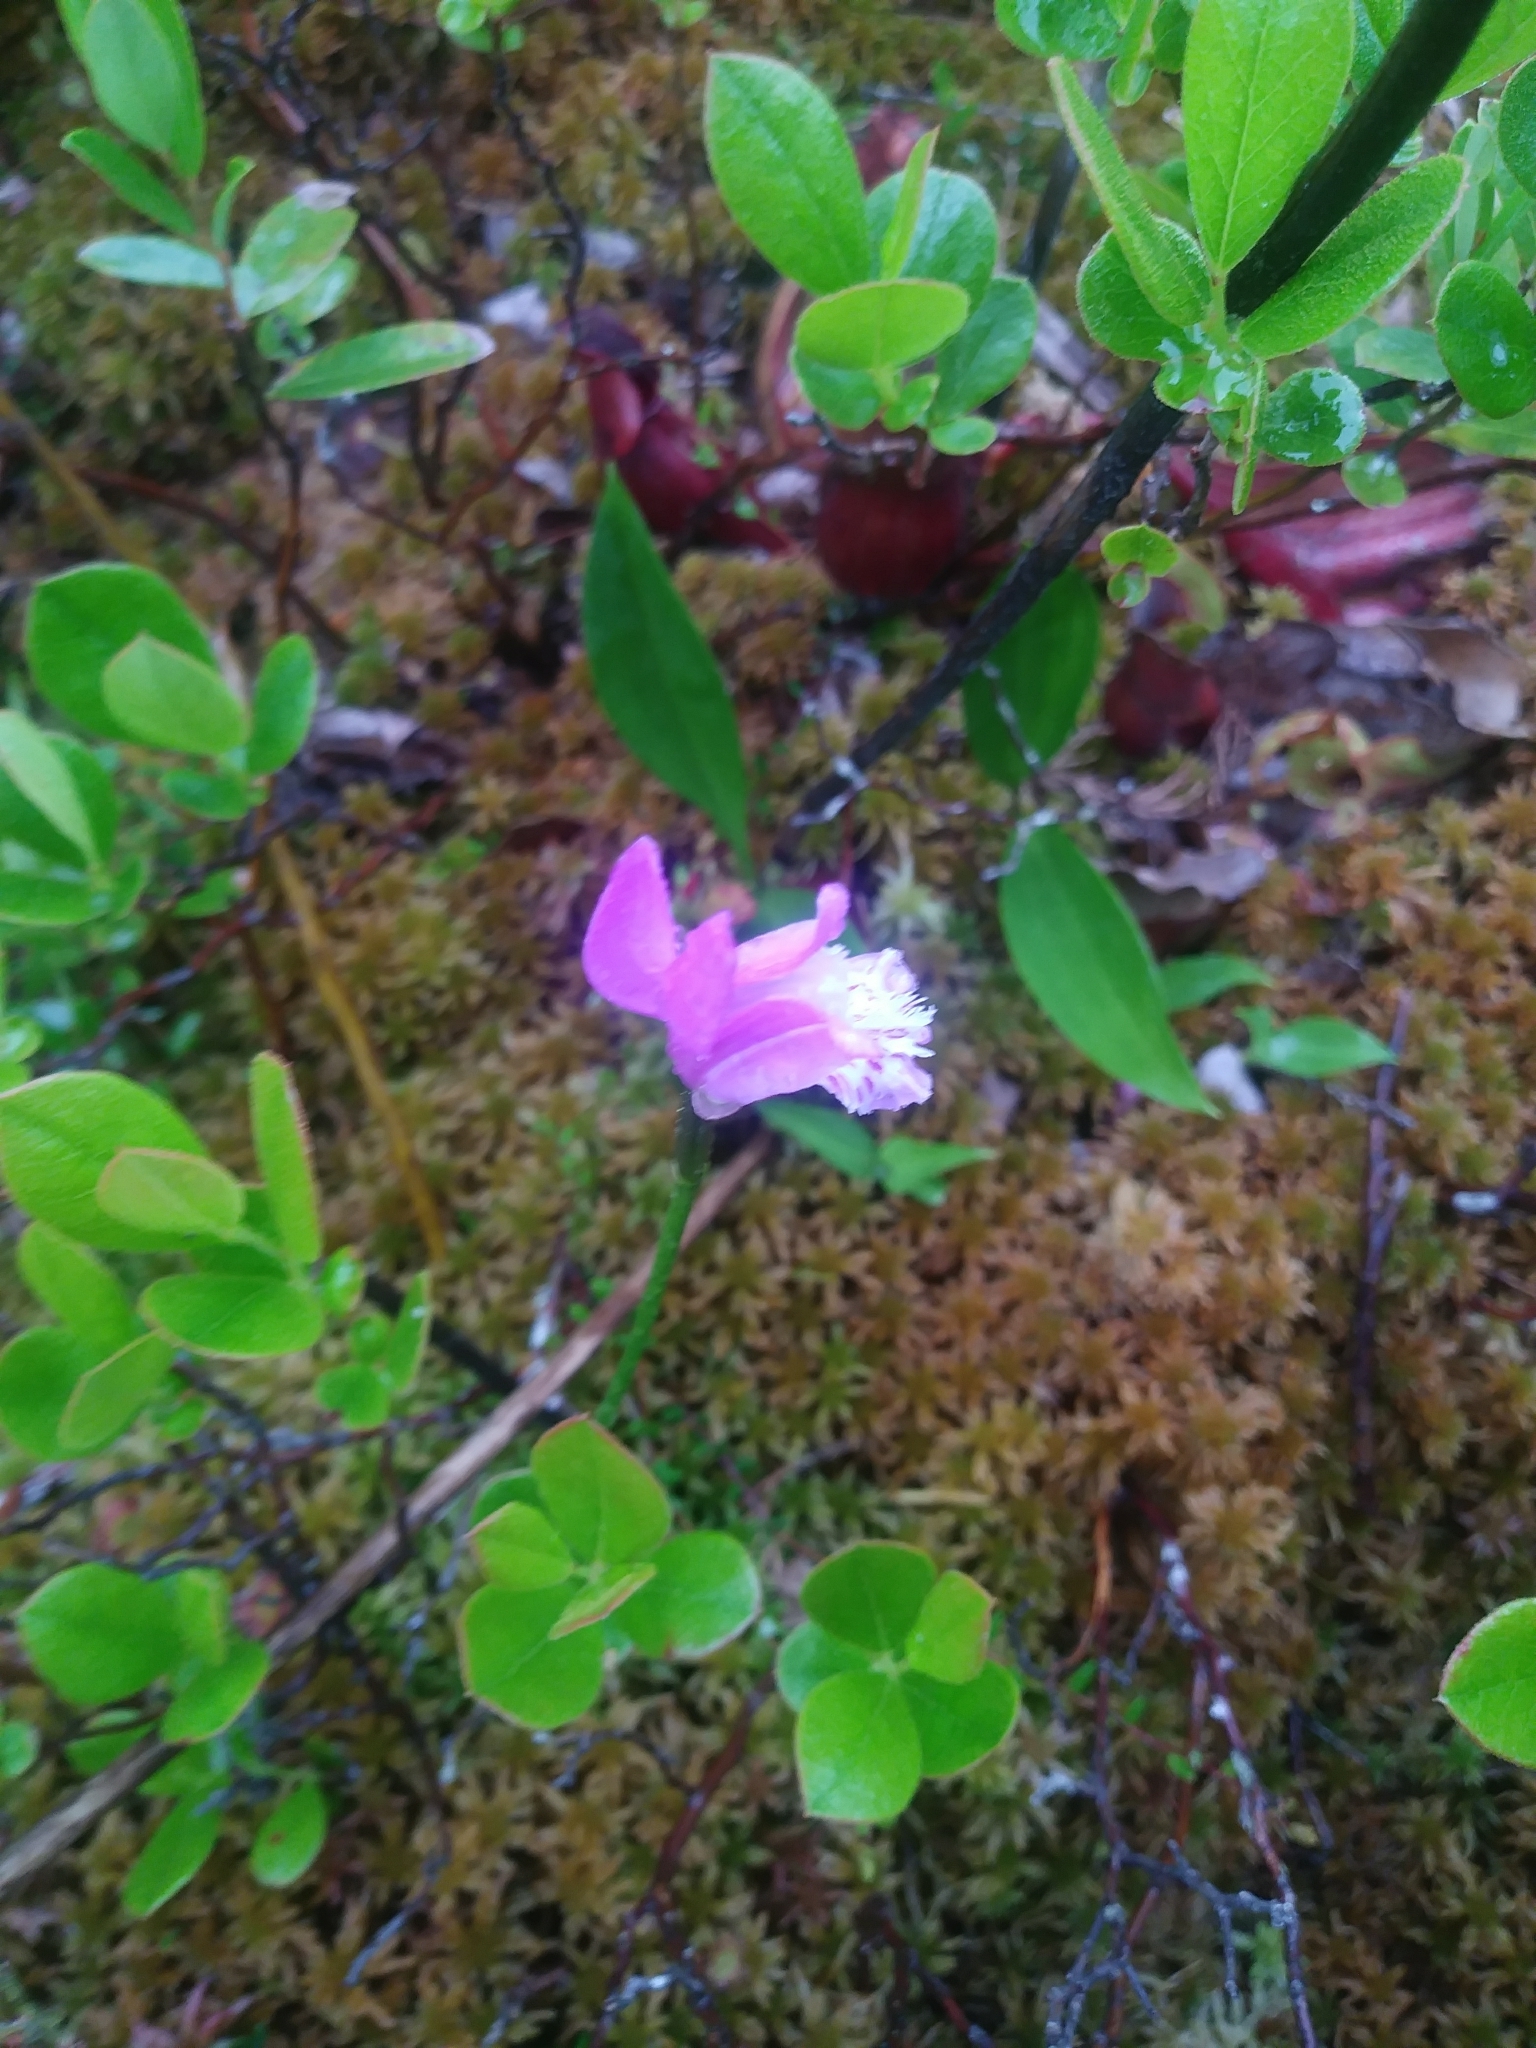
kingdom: Plantae
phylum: Tracheophyta
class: Liliopsida
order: Asparagales
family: Orchidaceae
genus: Arethusa
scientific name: Arethusa bulbosa
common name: Arethusa
